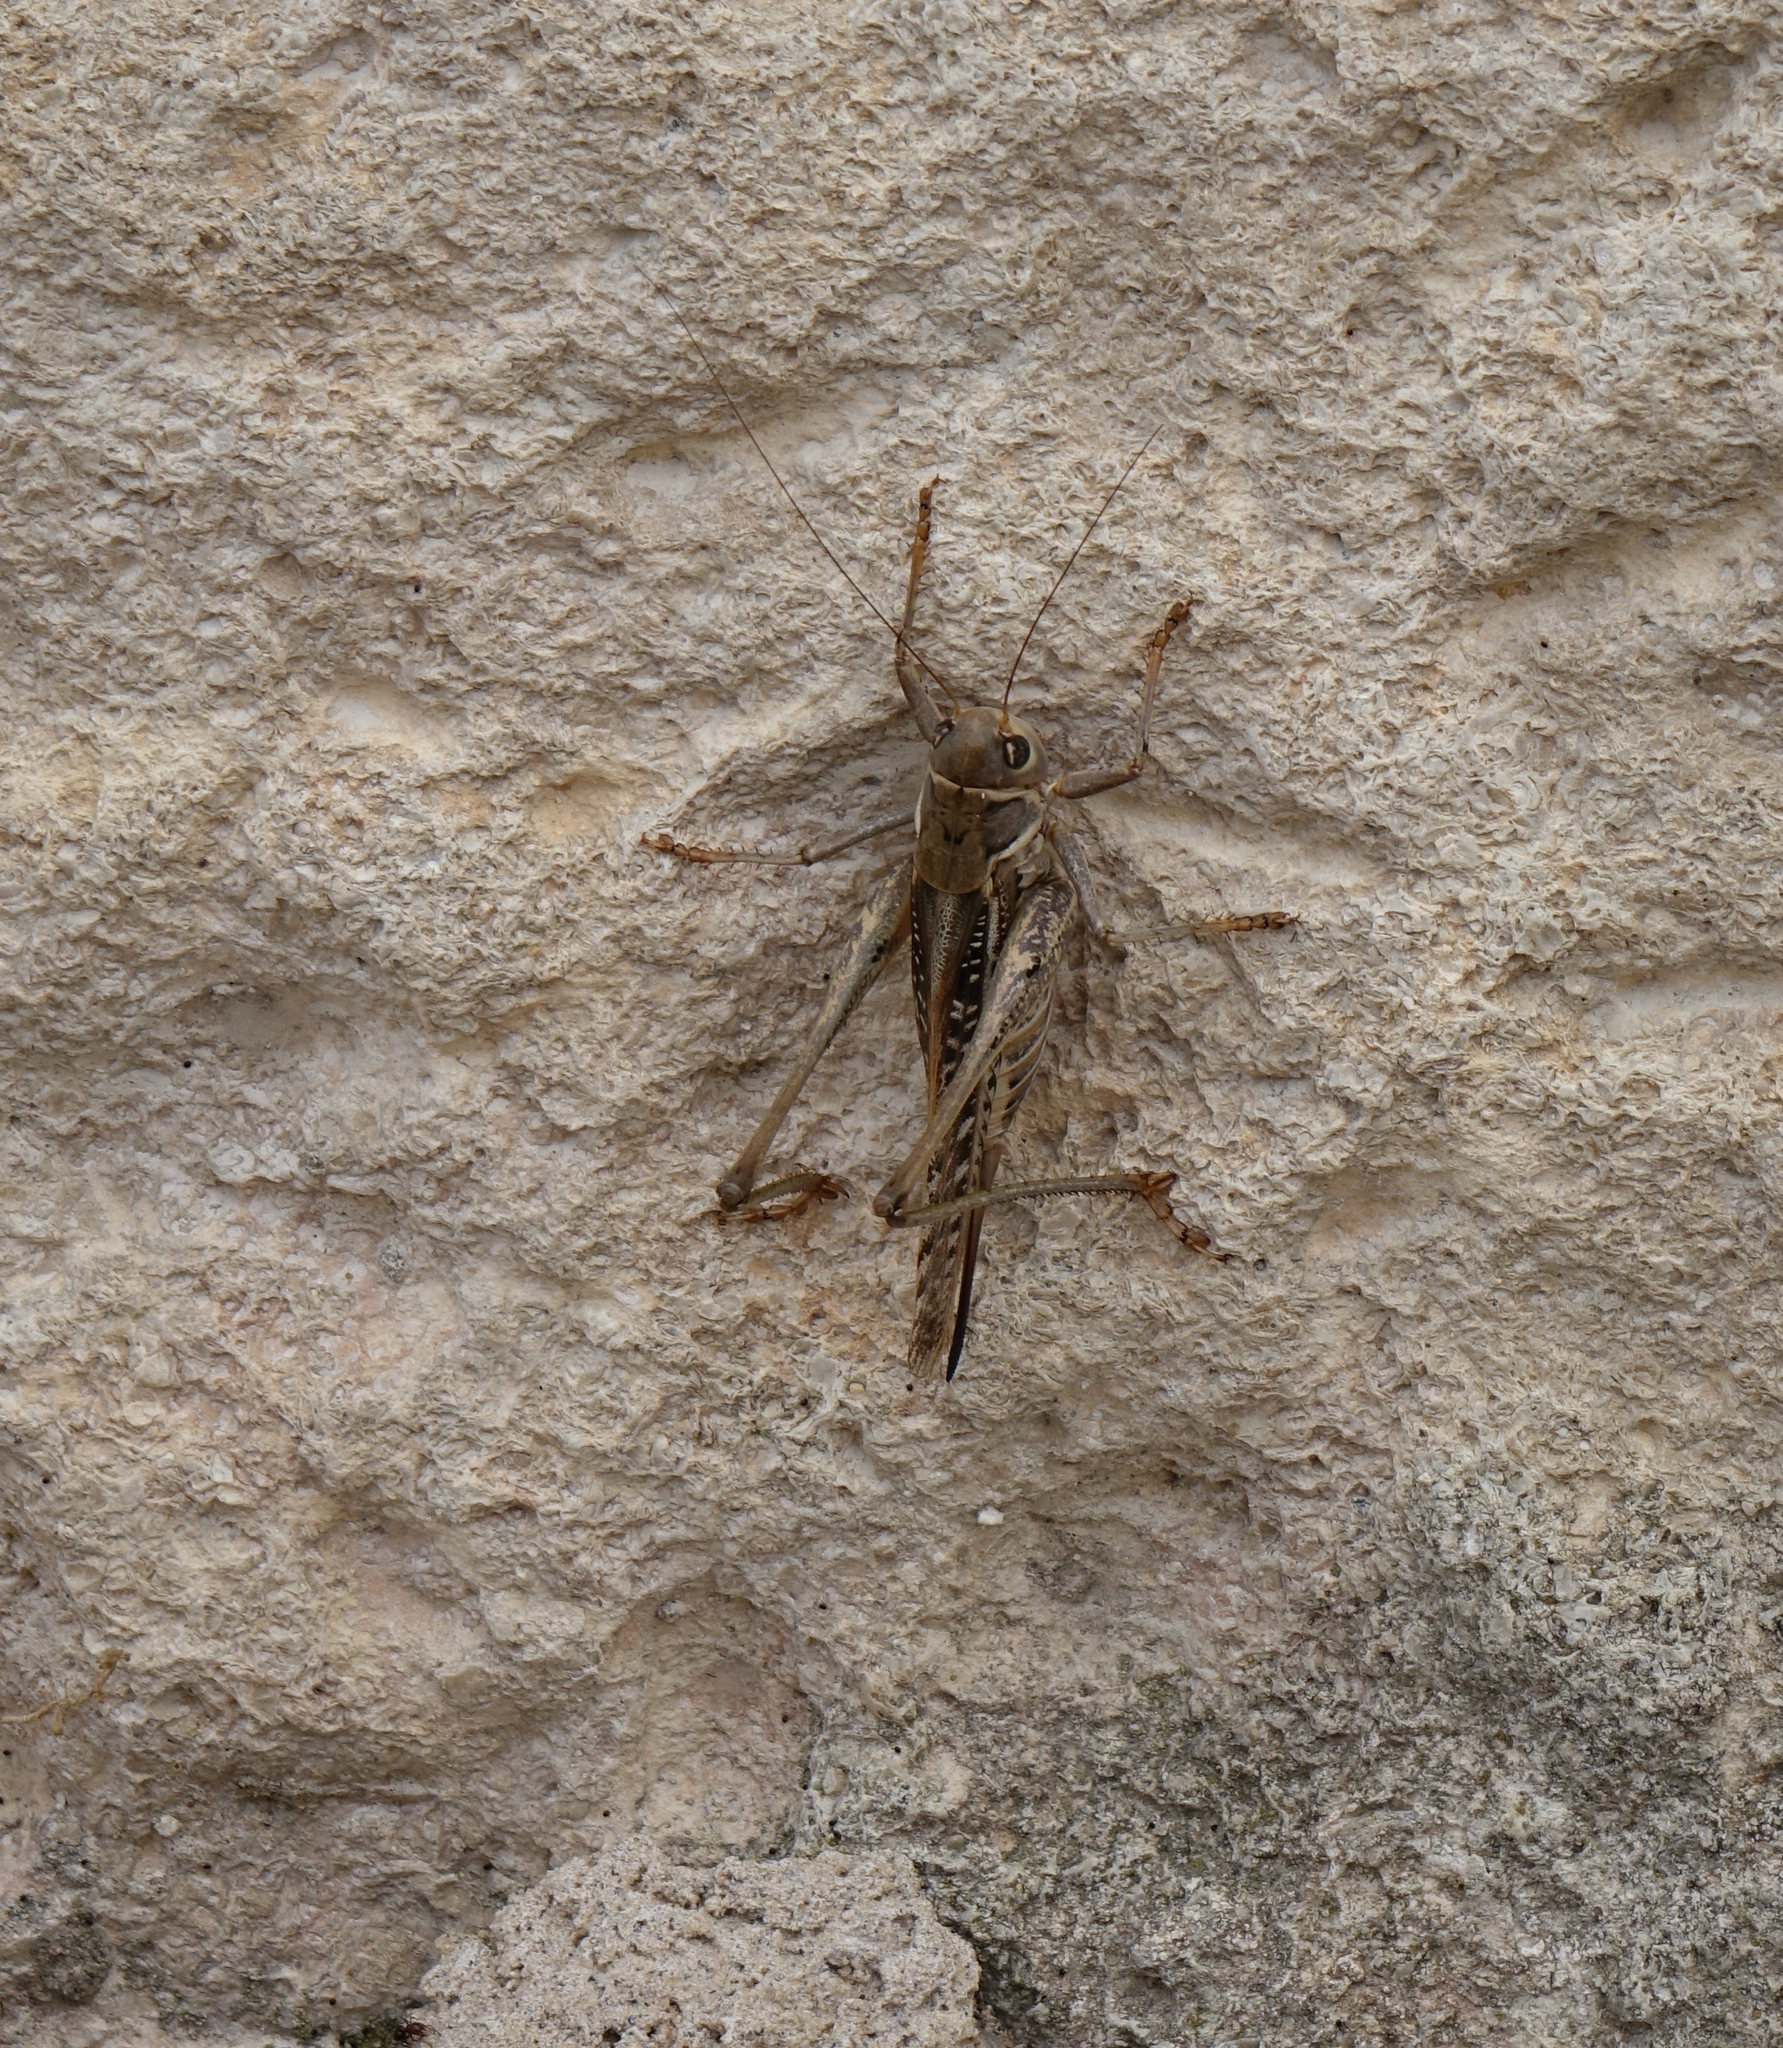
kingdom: Animalia
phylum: Arthropoda
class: Insecta
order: Orthoptera
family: Tettigoniidae
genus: Decticus
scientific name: Decticus albifrons
